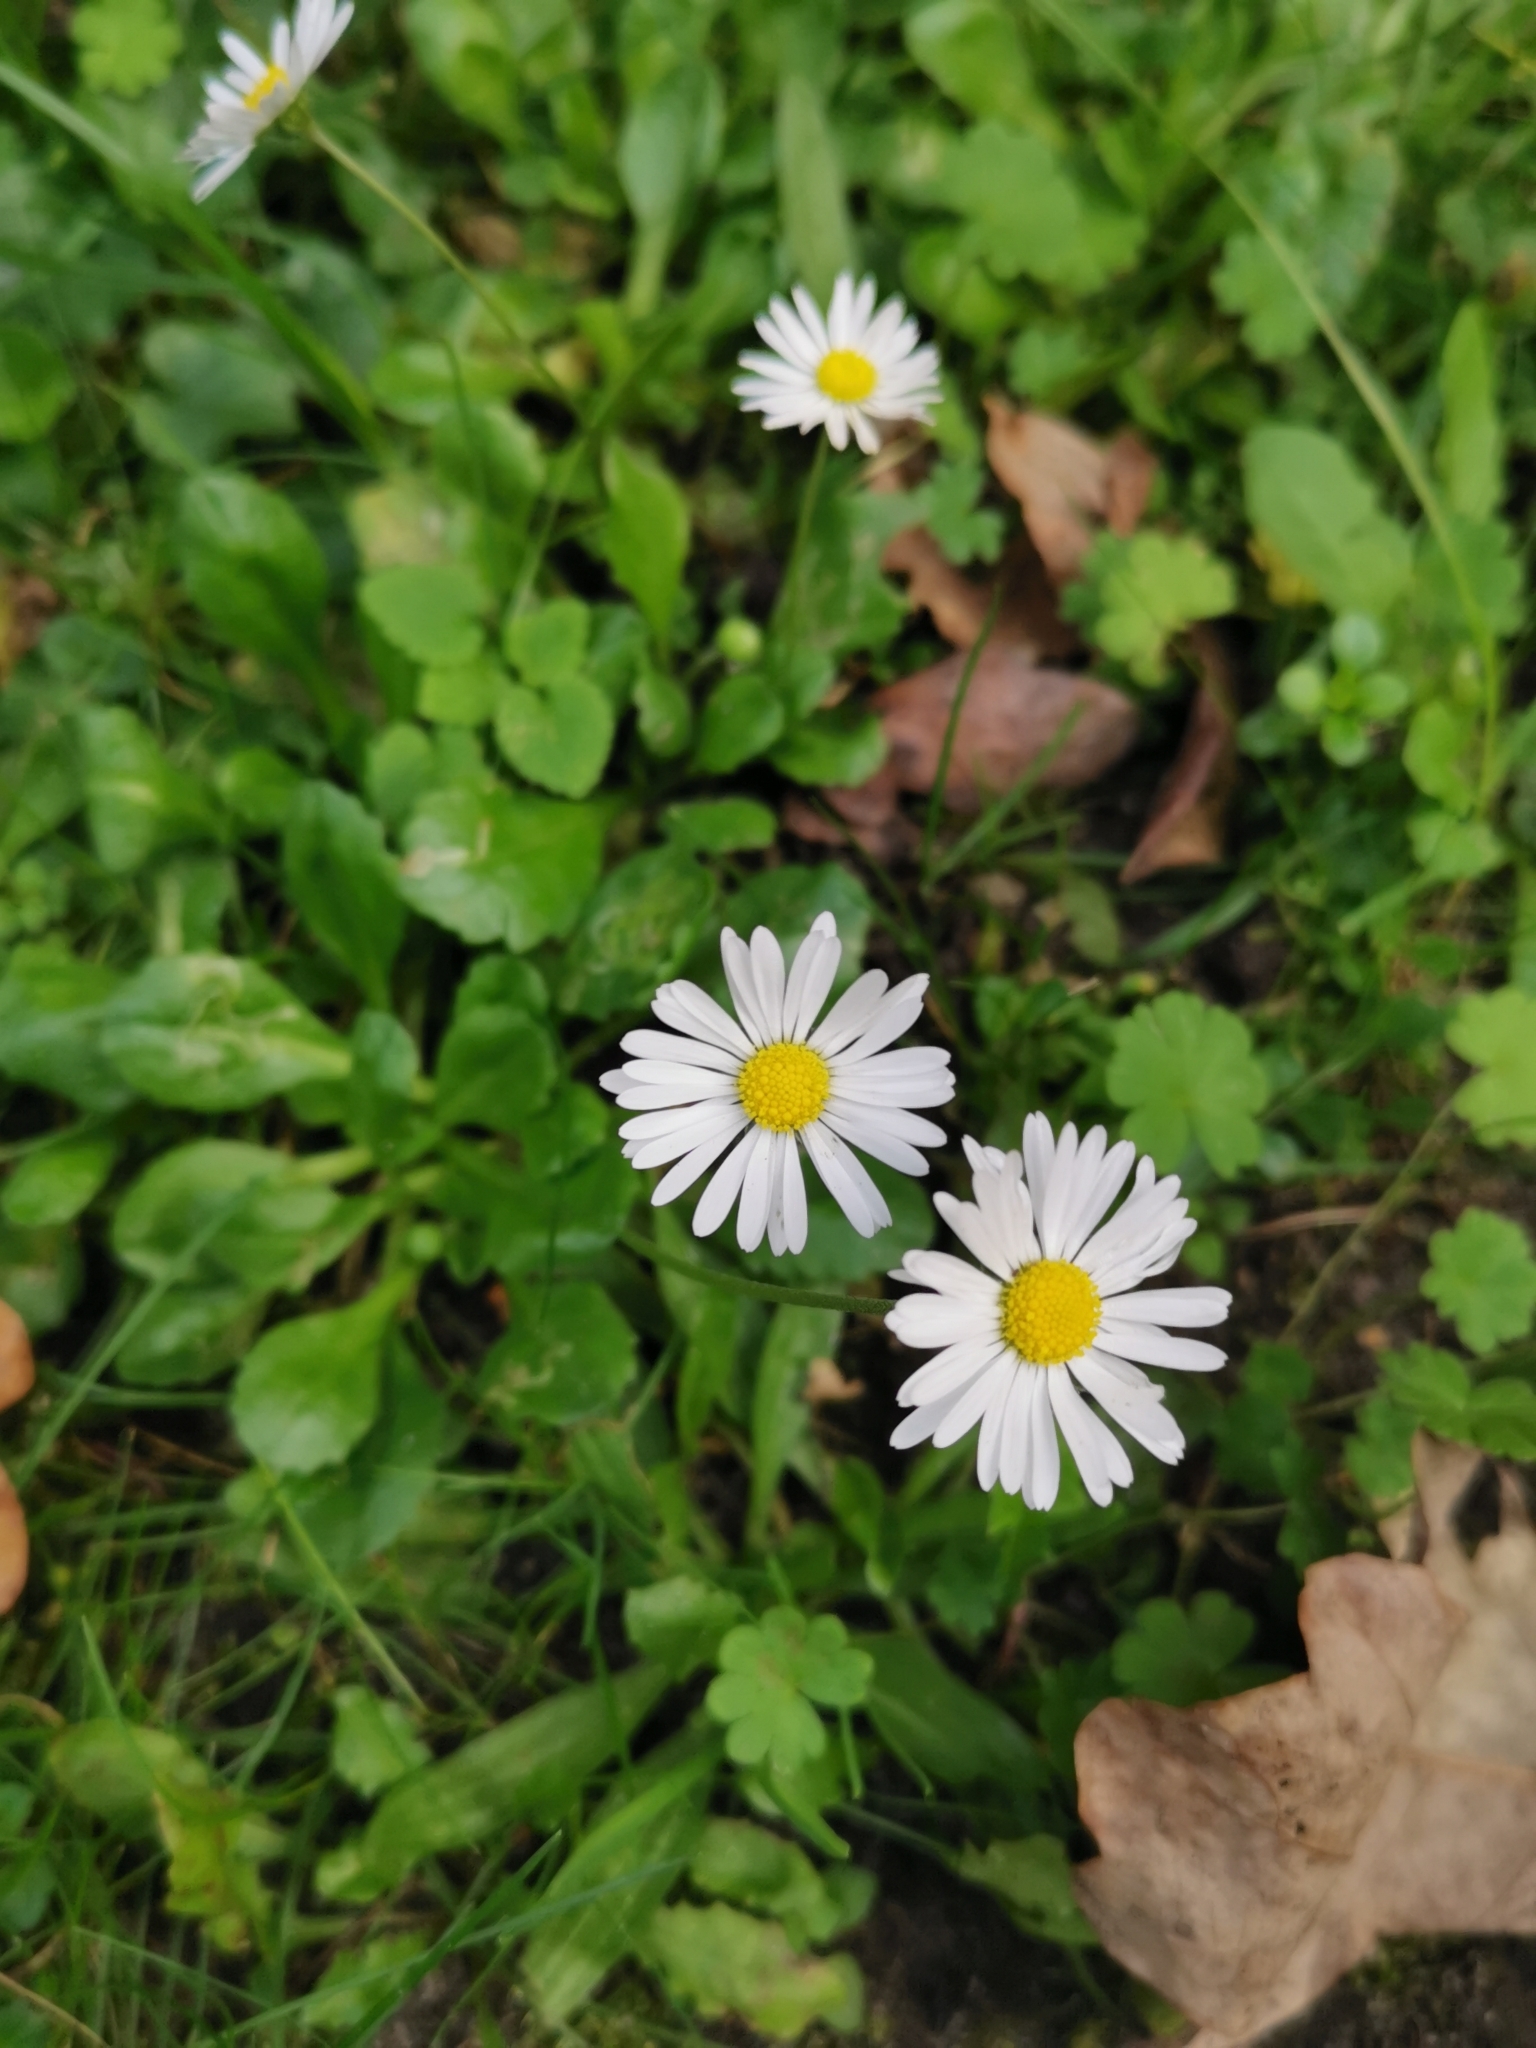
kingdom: Plantae
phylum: Tracheophyta
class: Magnoliopsida
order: Asterales
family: Asteraceae
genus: Bellis
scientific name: Bellis perennis
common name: Lawndaisy
